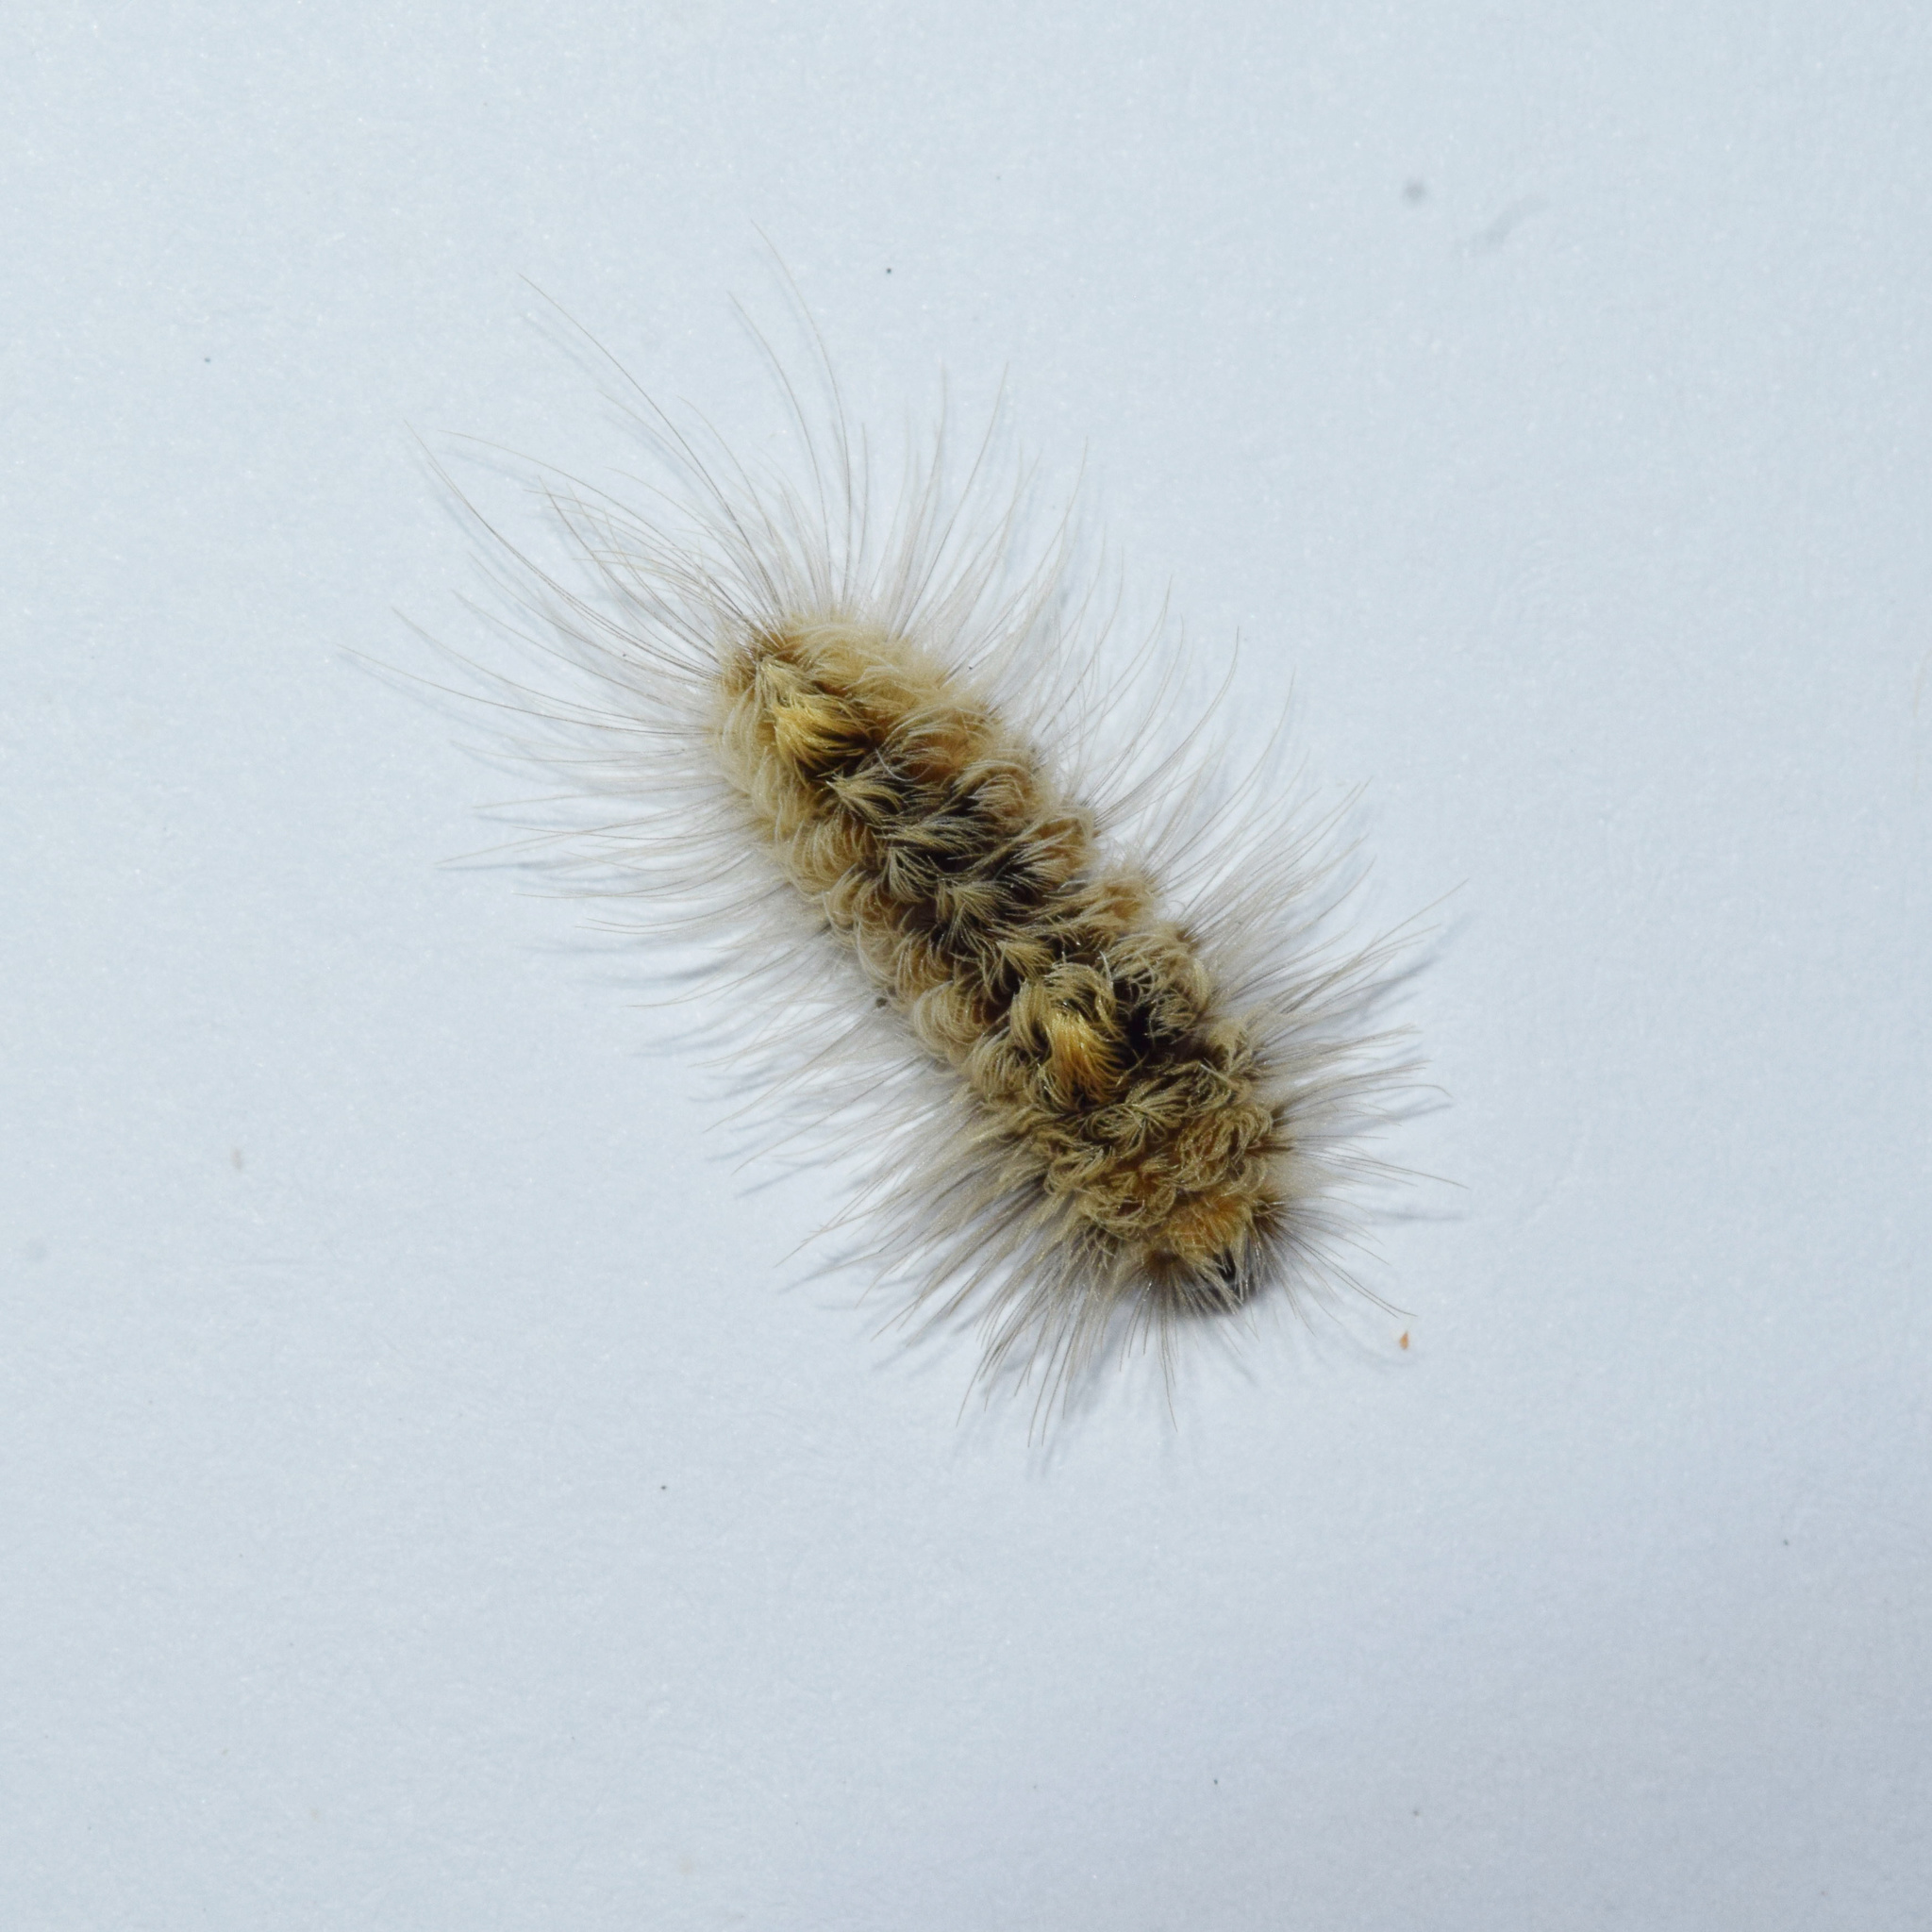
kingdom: Animalia
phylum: Arthropoda
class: Insecta
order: Lepidoptera
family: Erebidae
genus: Tumicla
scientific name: Tumicla sagenaria
